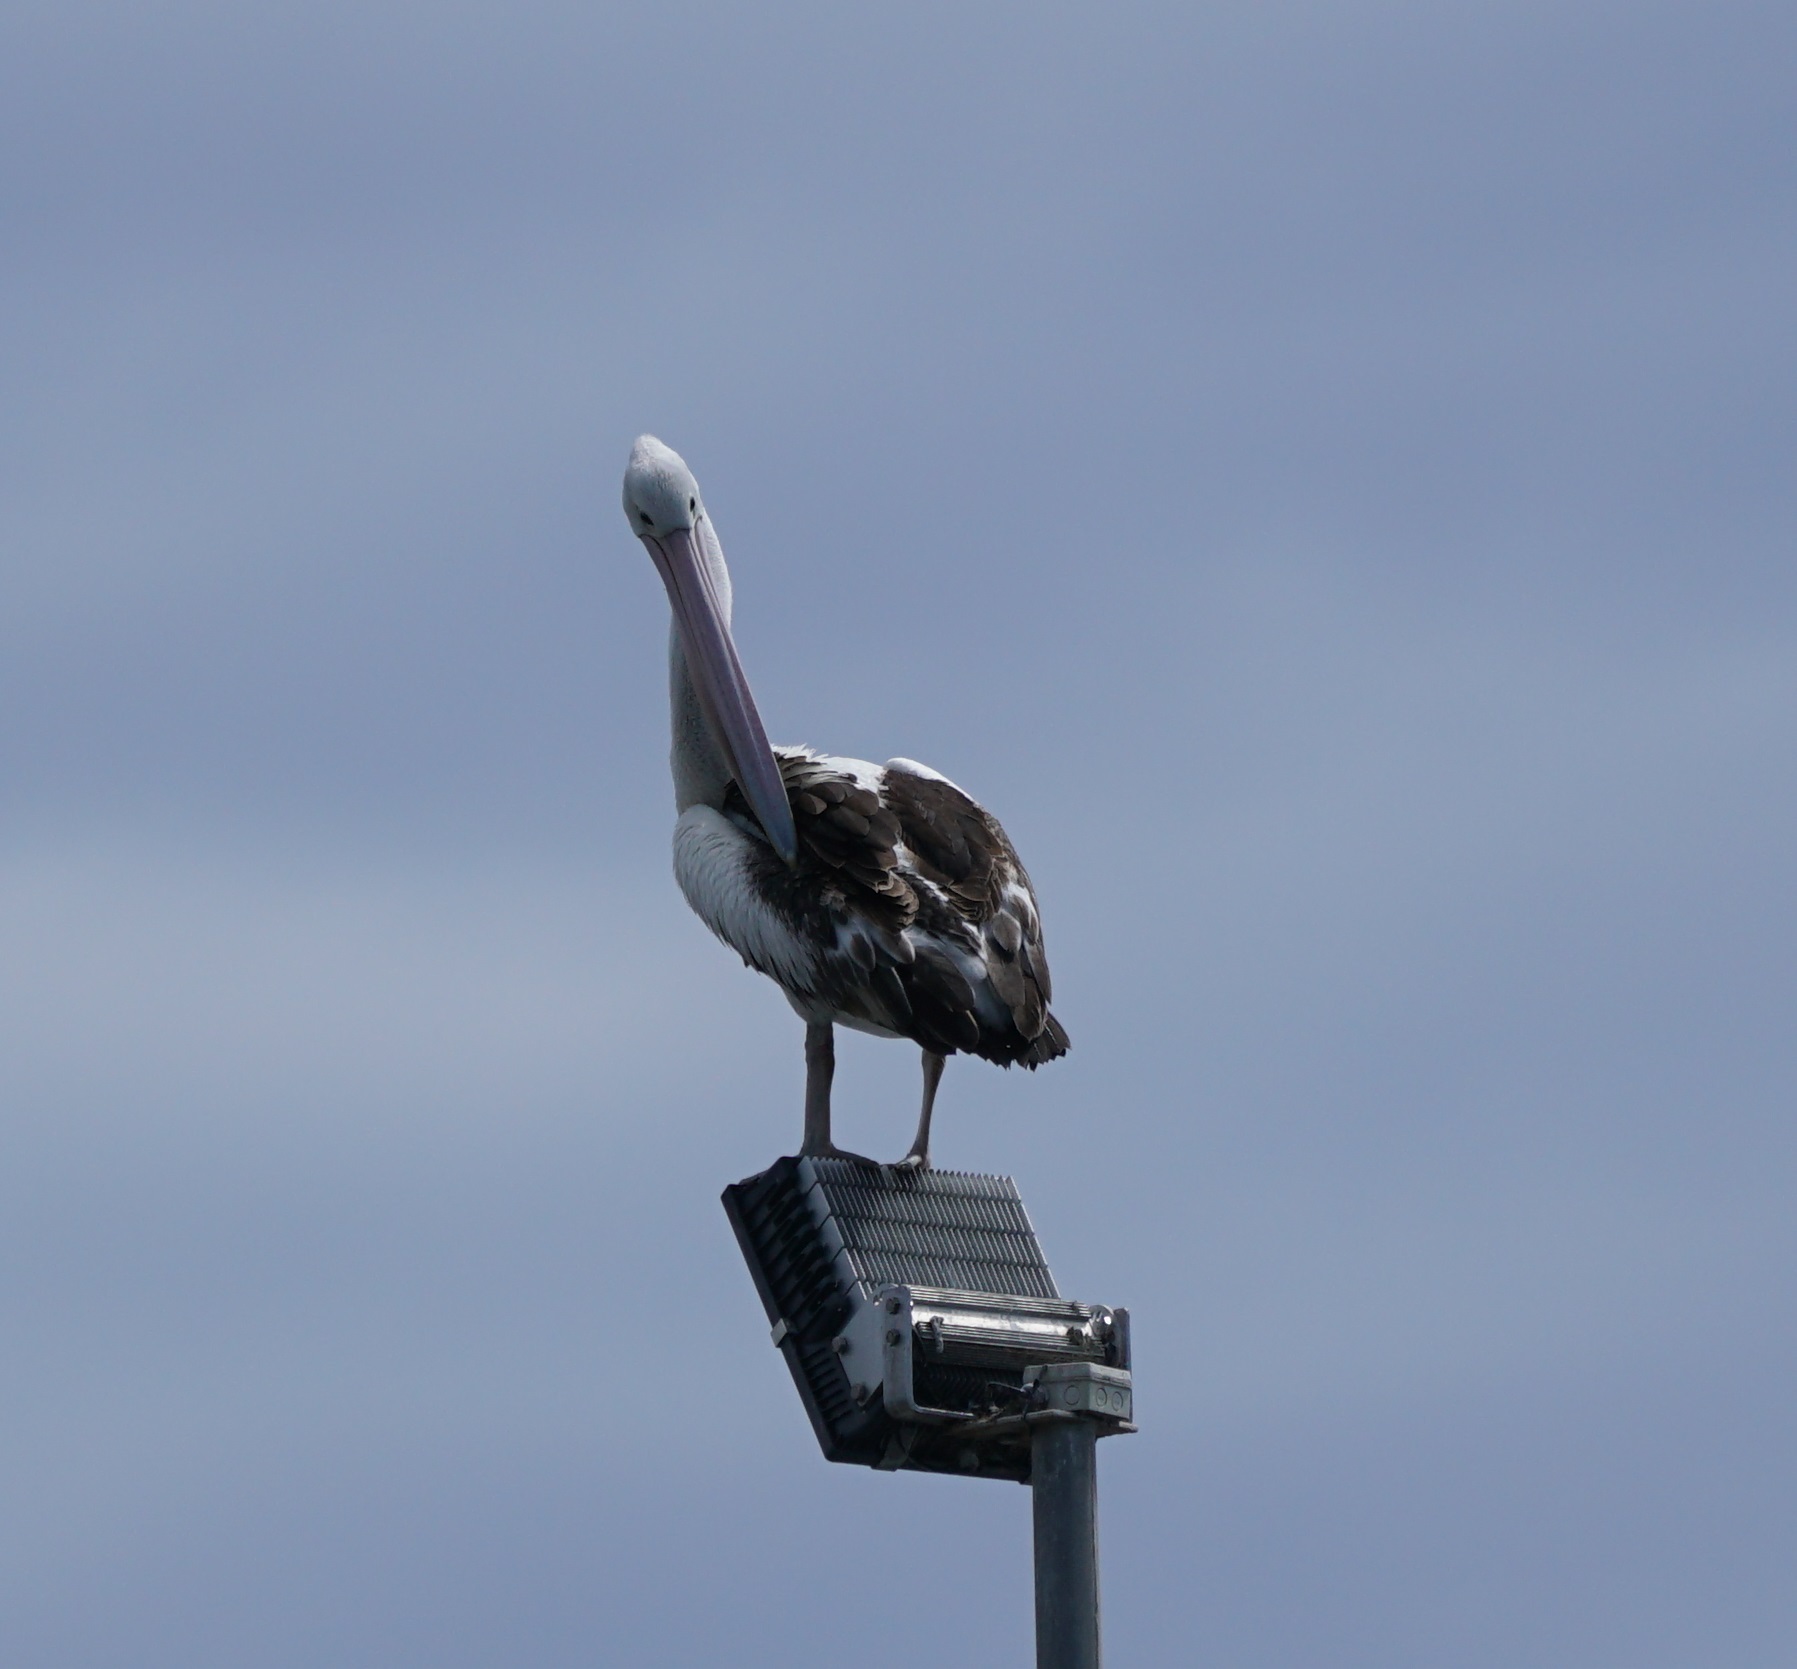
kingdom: Animalia
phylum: Chordata
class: Aves
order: Pelecaniformes
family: Pelecanidae
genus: Pelecanus
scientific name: Pelecanus conspicillatus
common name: Australian pelican
